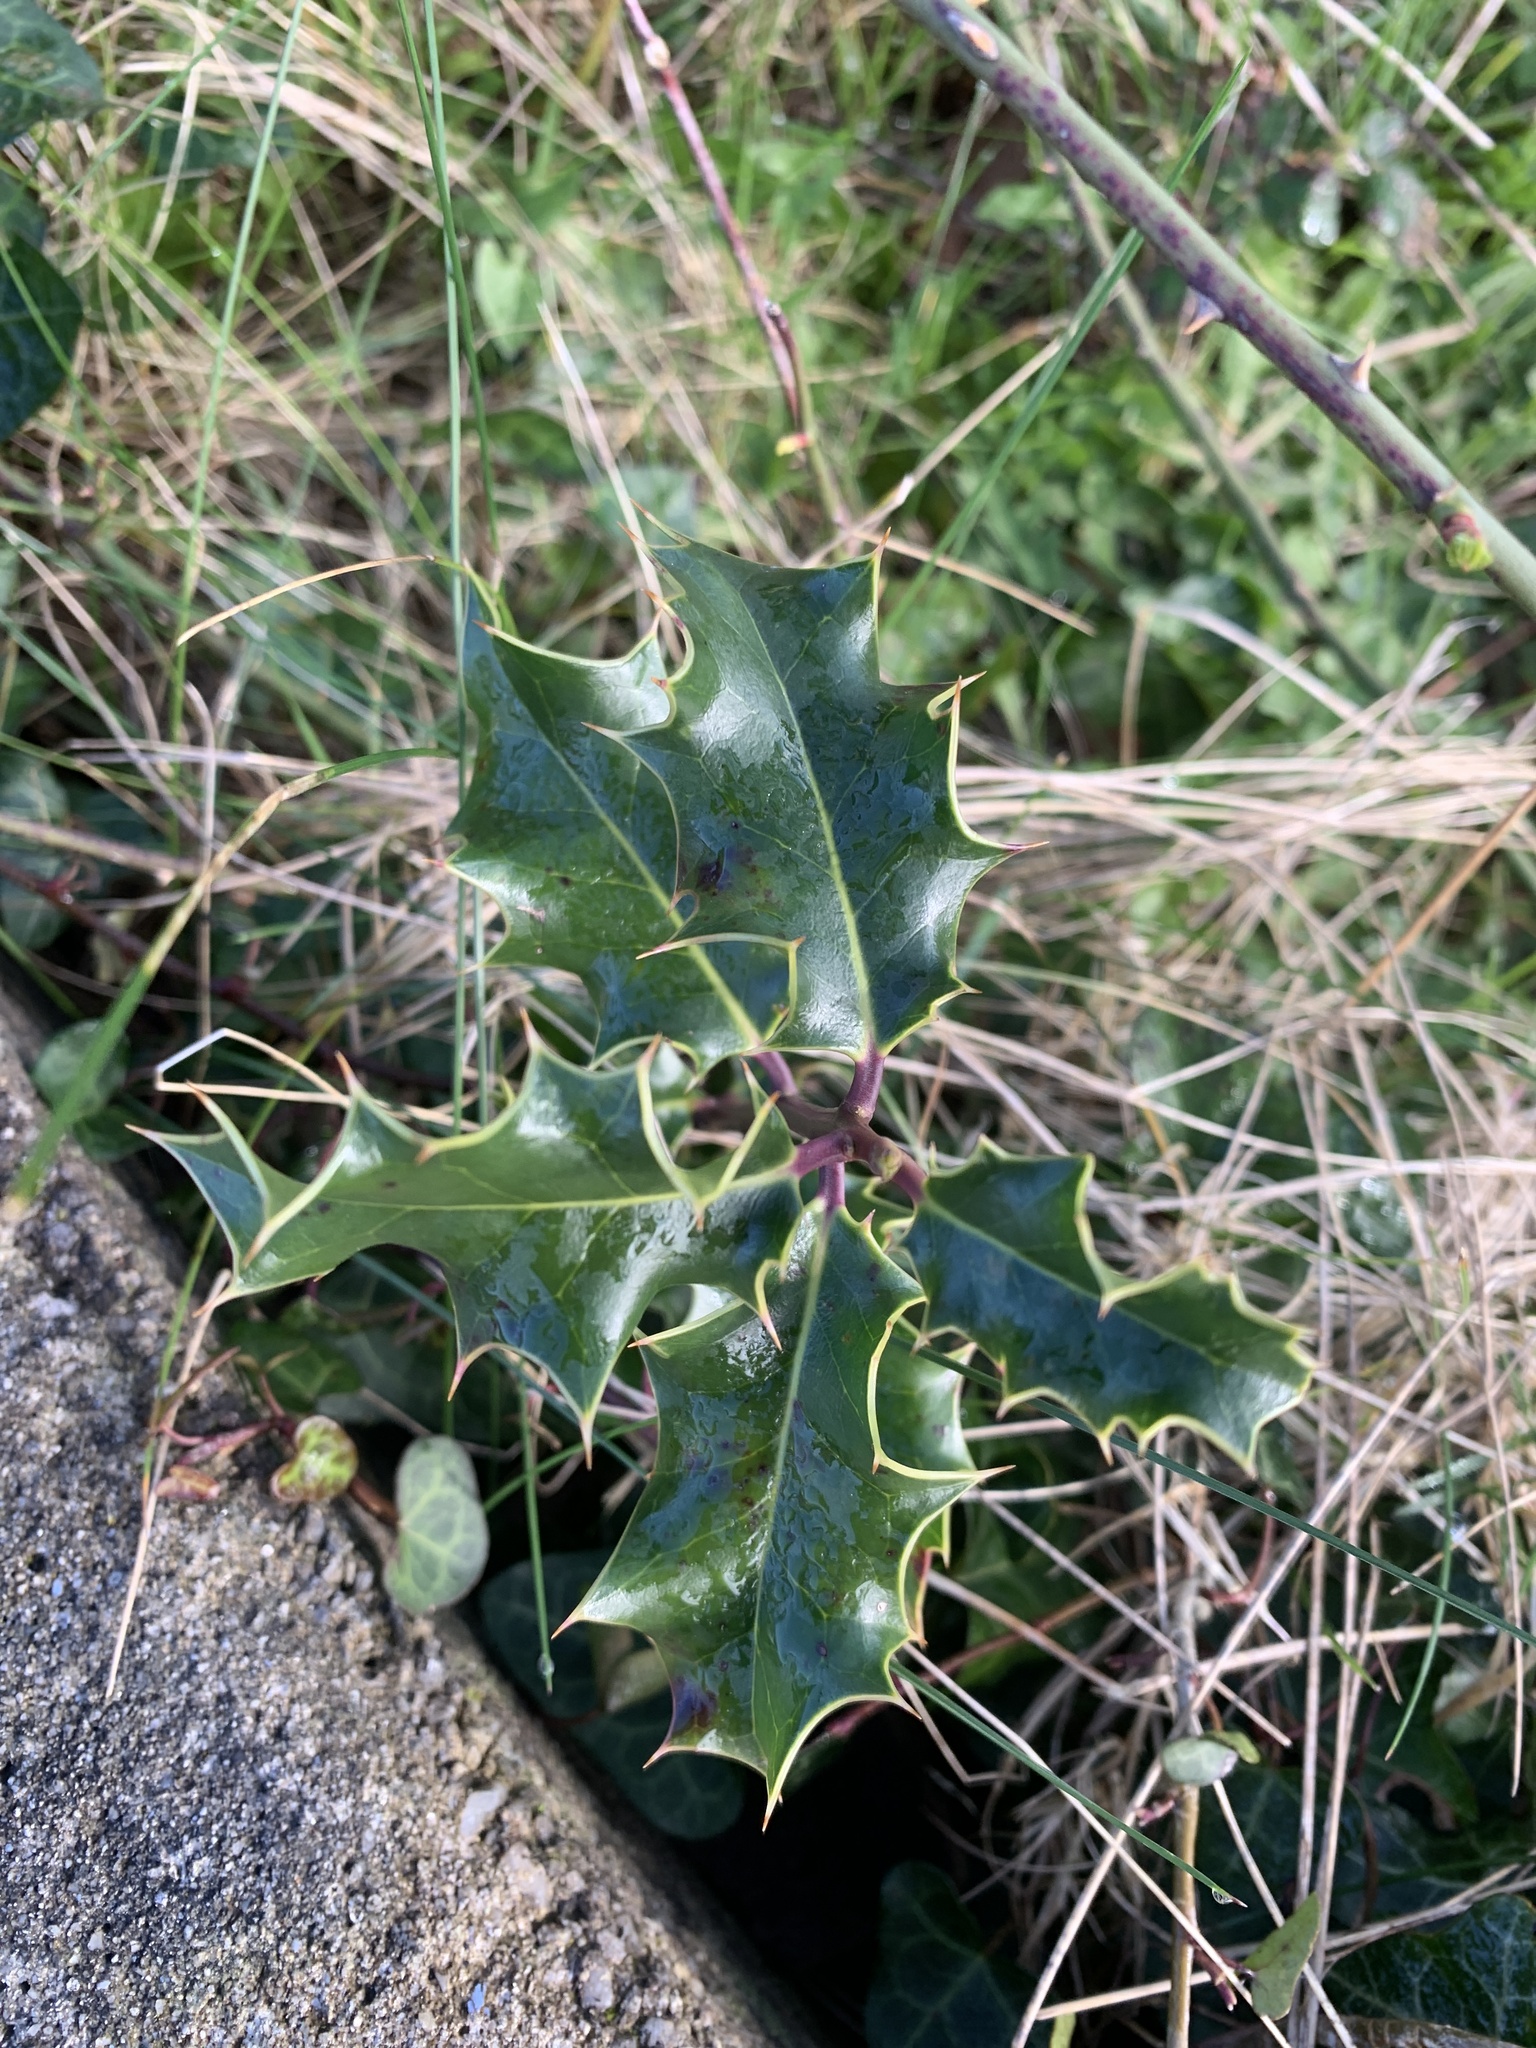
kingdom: Plantae
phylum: Tracheophyta
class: Magnoliopsida
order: Aquifoliales
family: Aquifoliaceae
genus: Ilex
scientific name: Ilex aquifolium
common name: English holly
